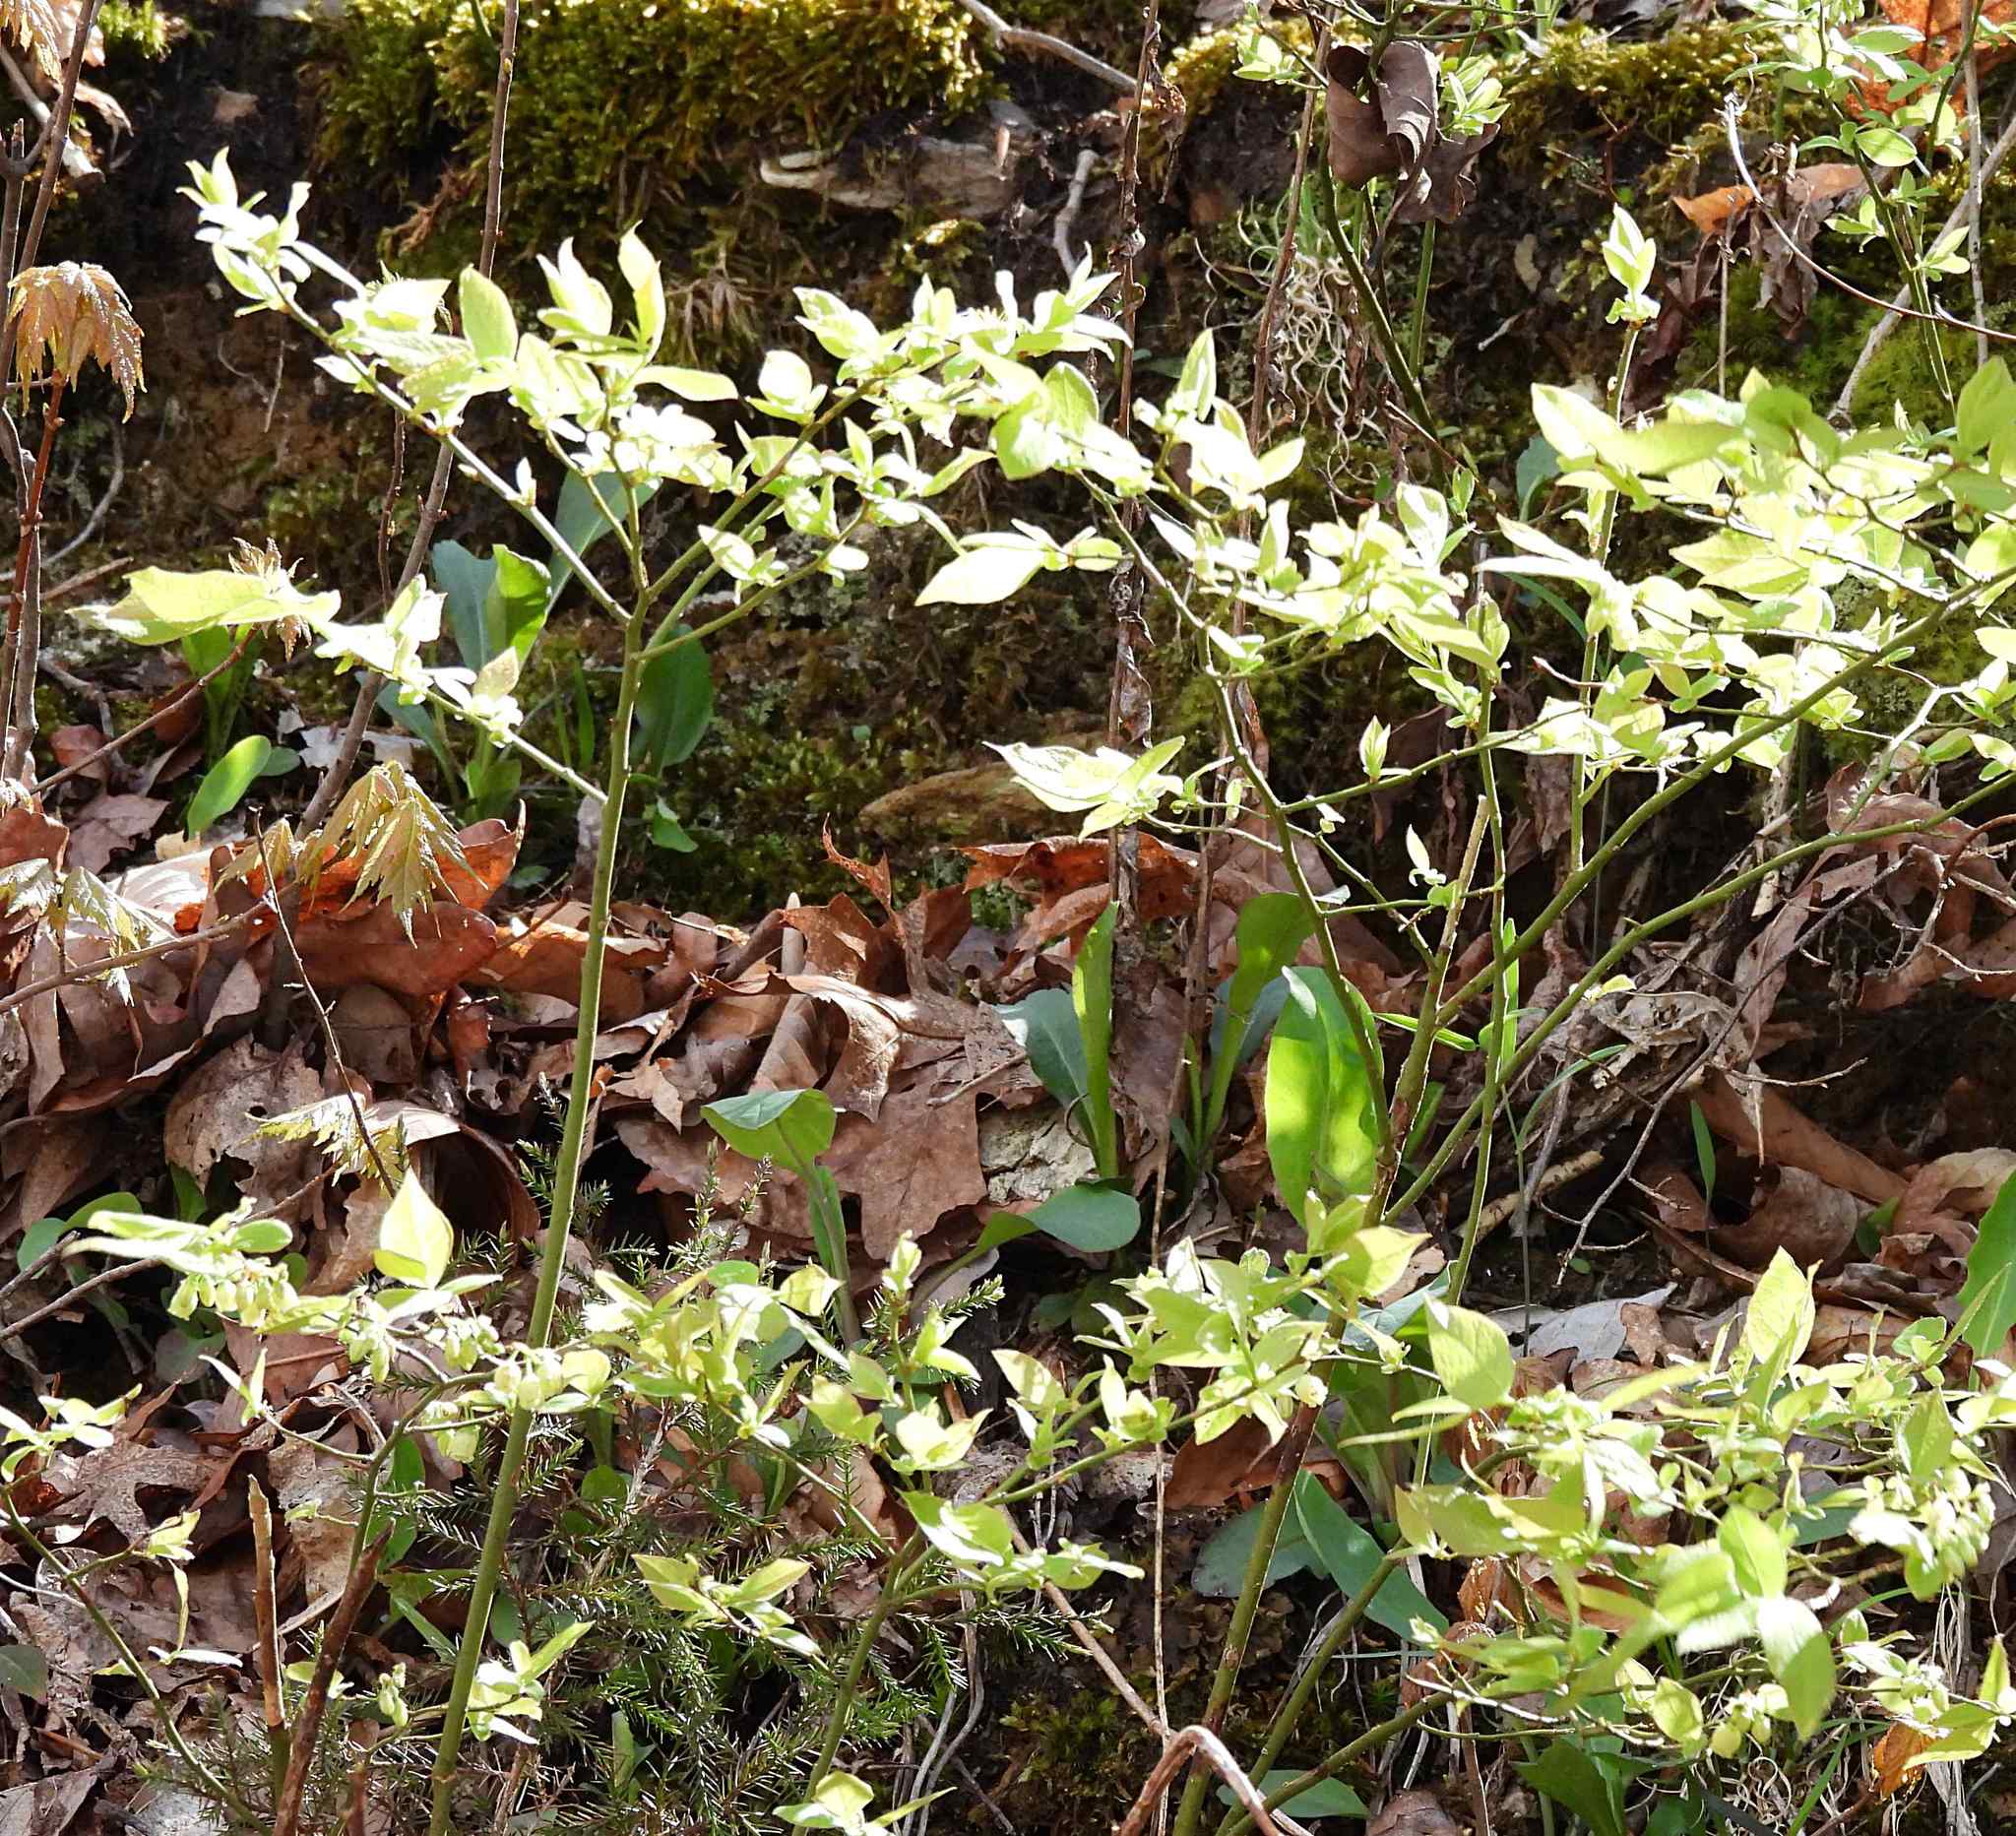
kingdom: Plantae
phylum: Tracheophyta
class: Magnoliopsida
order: Ericales
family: Ericaceae
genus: Vaccinium
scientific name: Vaccinium pallidum
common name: Blue ridge blueberry
